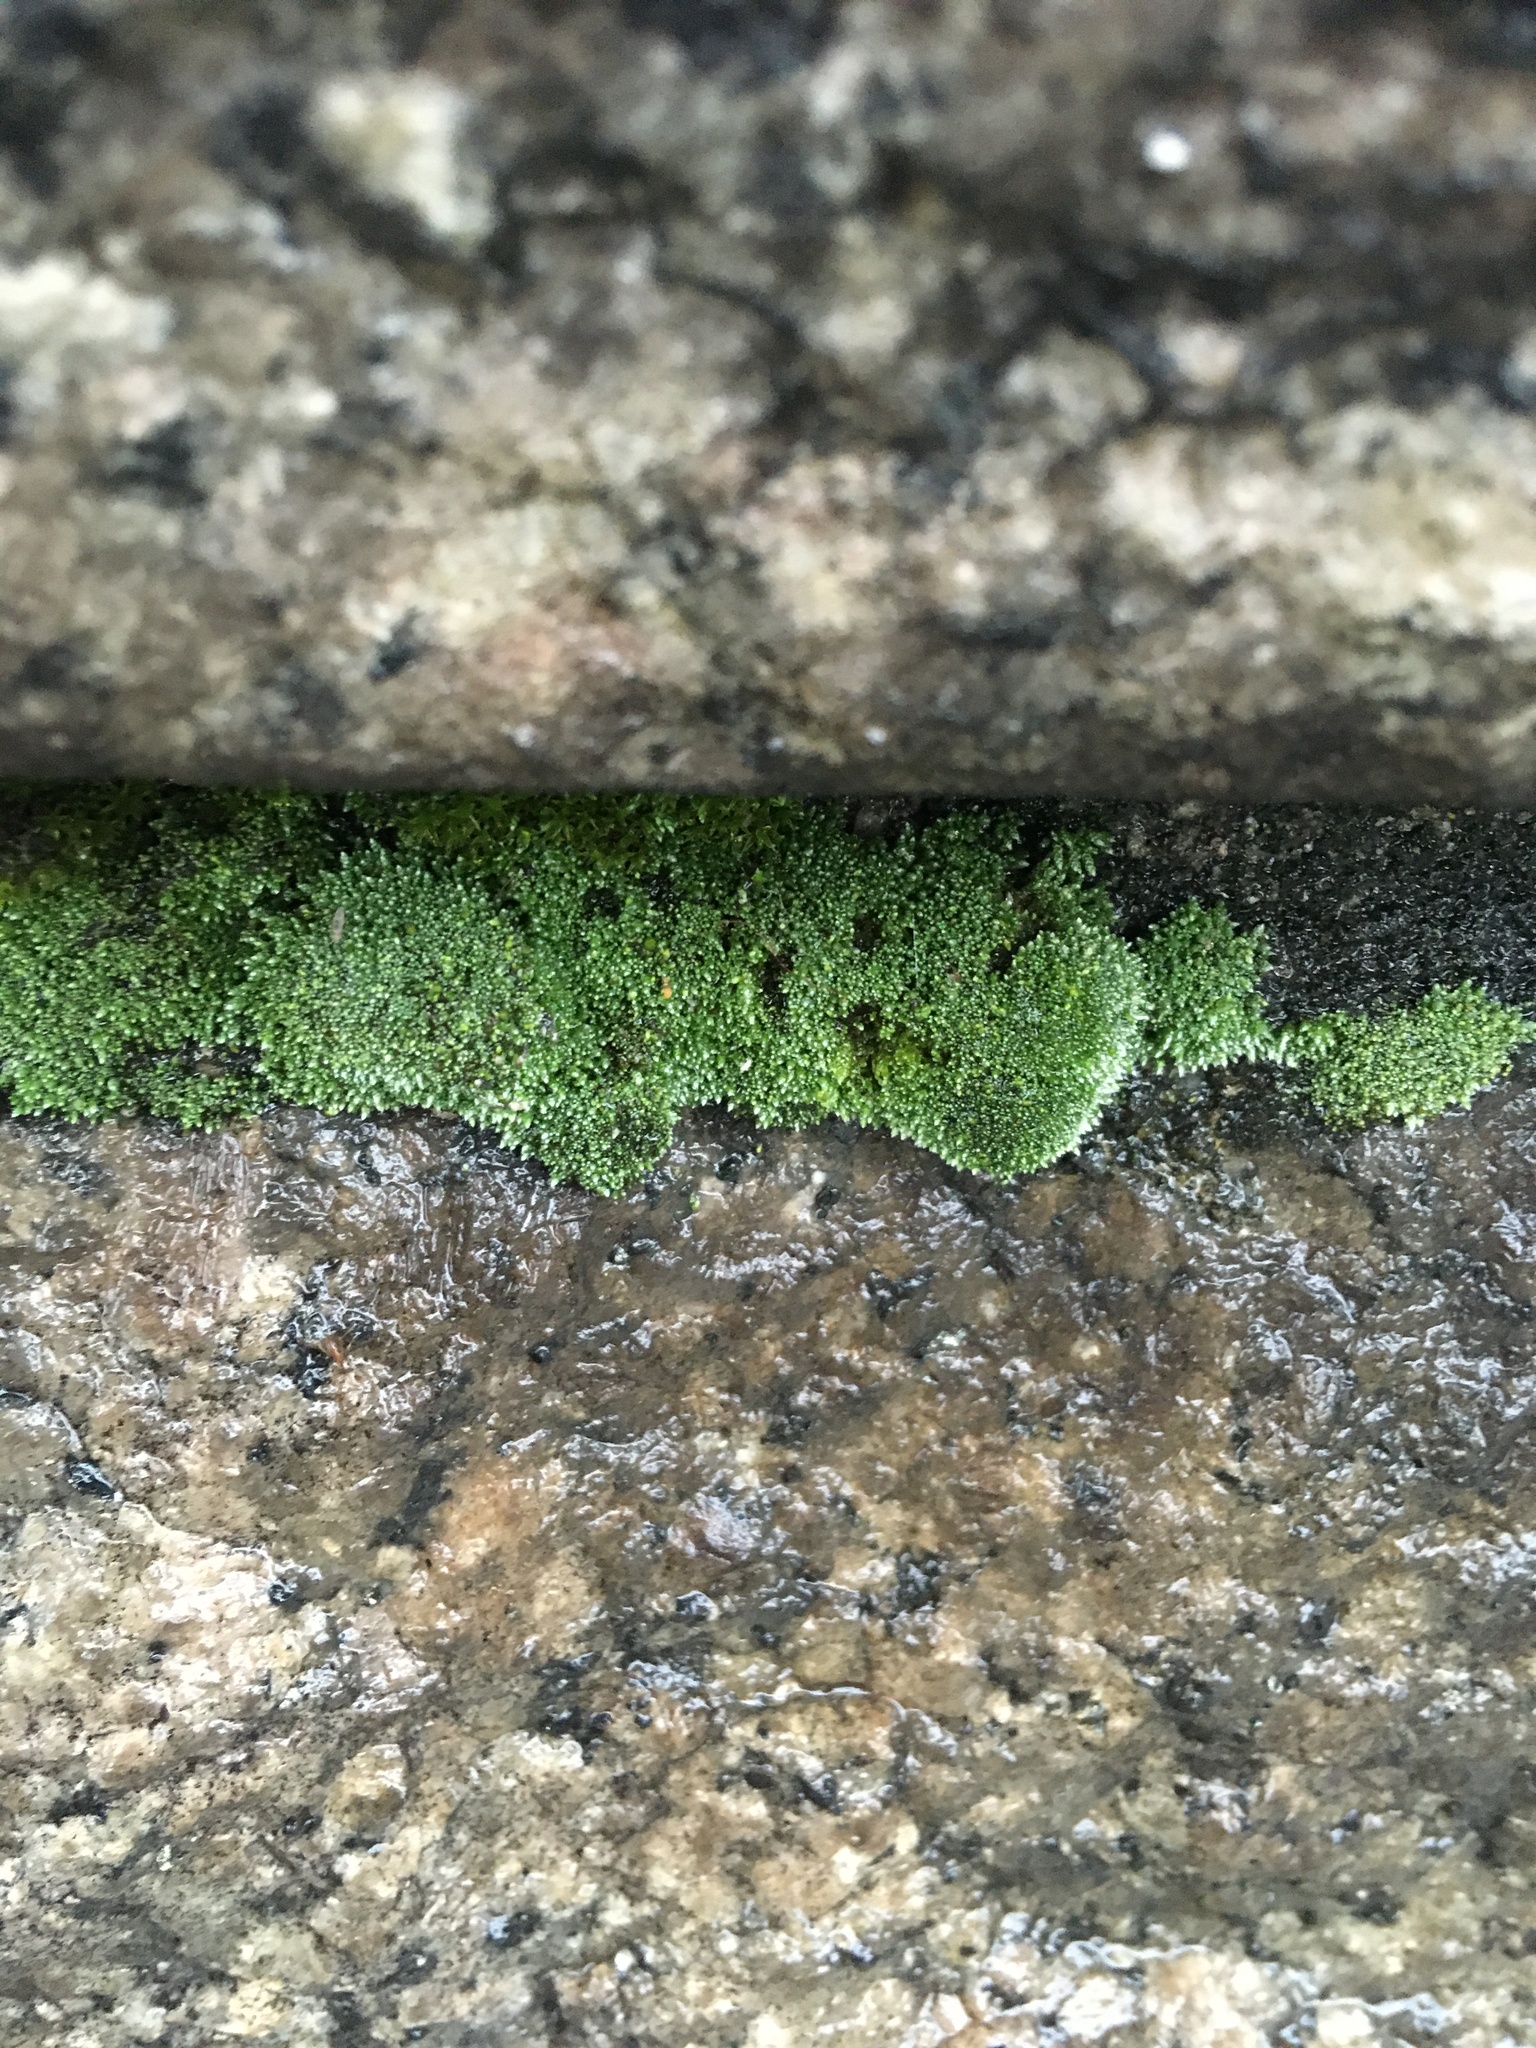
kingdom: Plantae
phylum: Bryophyta
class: Bryopsida
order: Bryales
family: Bryaceae
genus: Bryum
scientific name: Bryum argenteum
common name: Silver-moss
